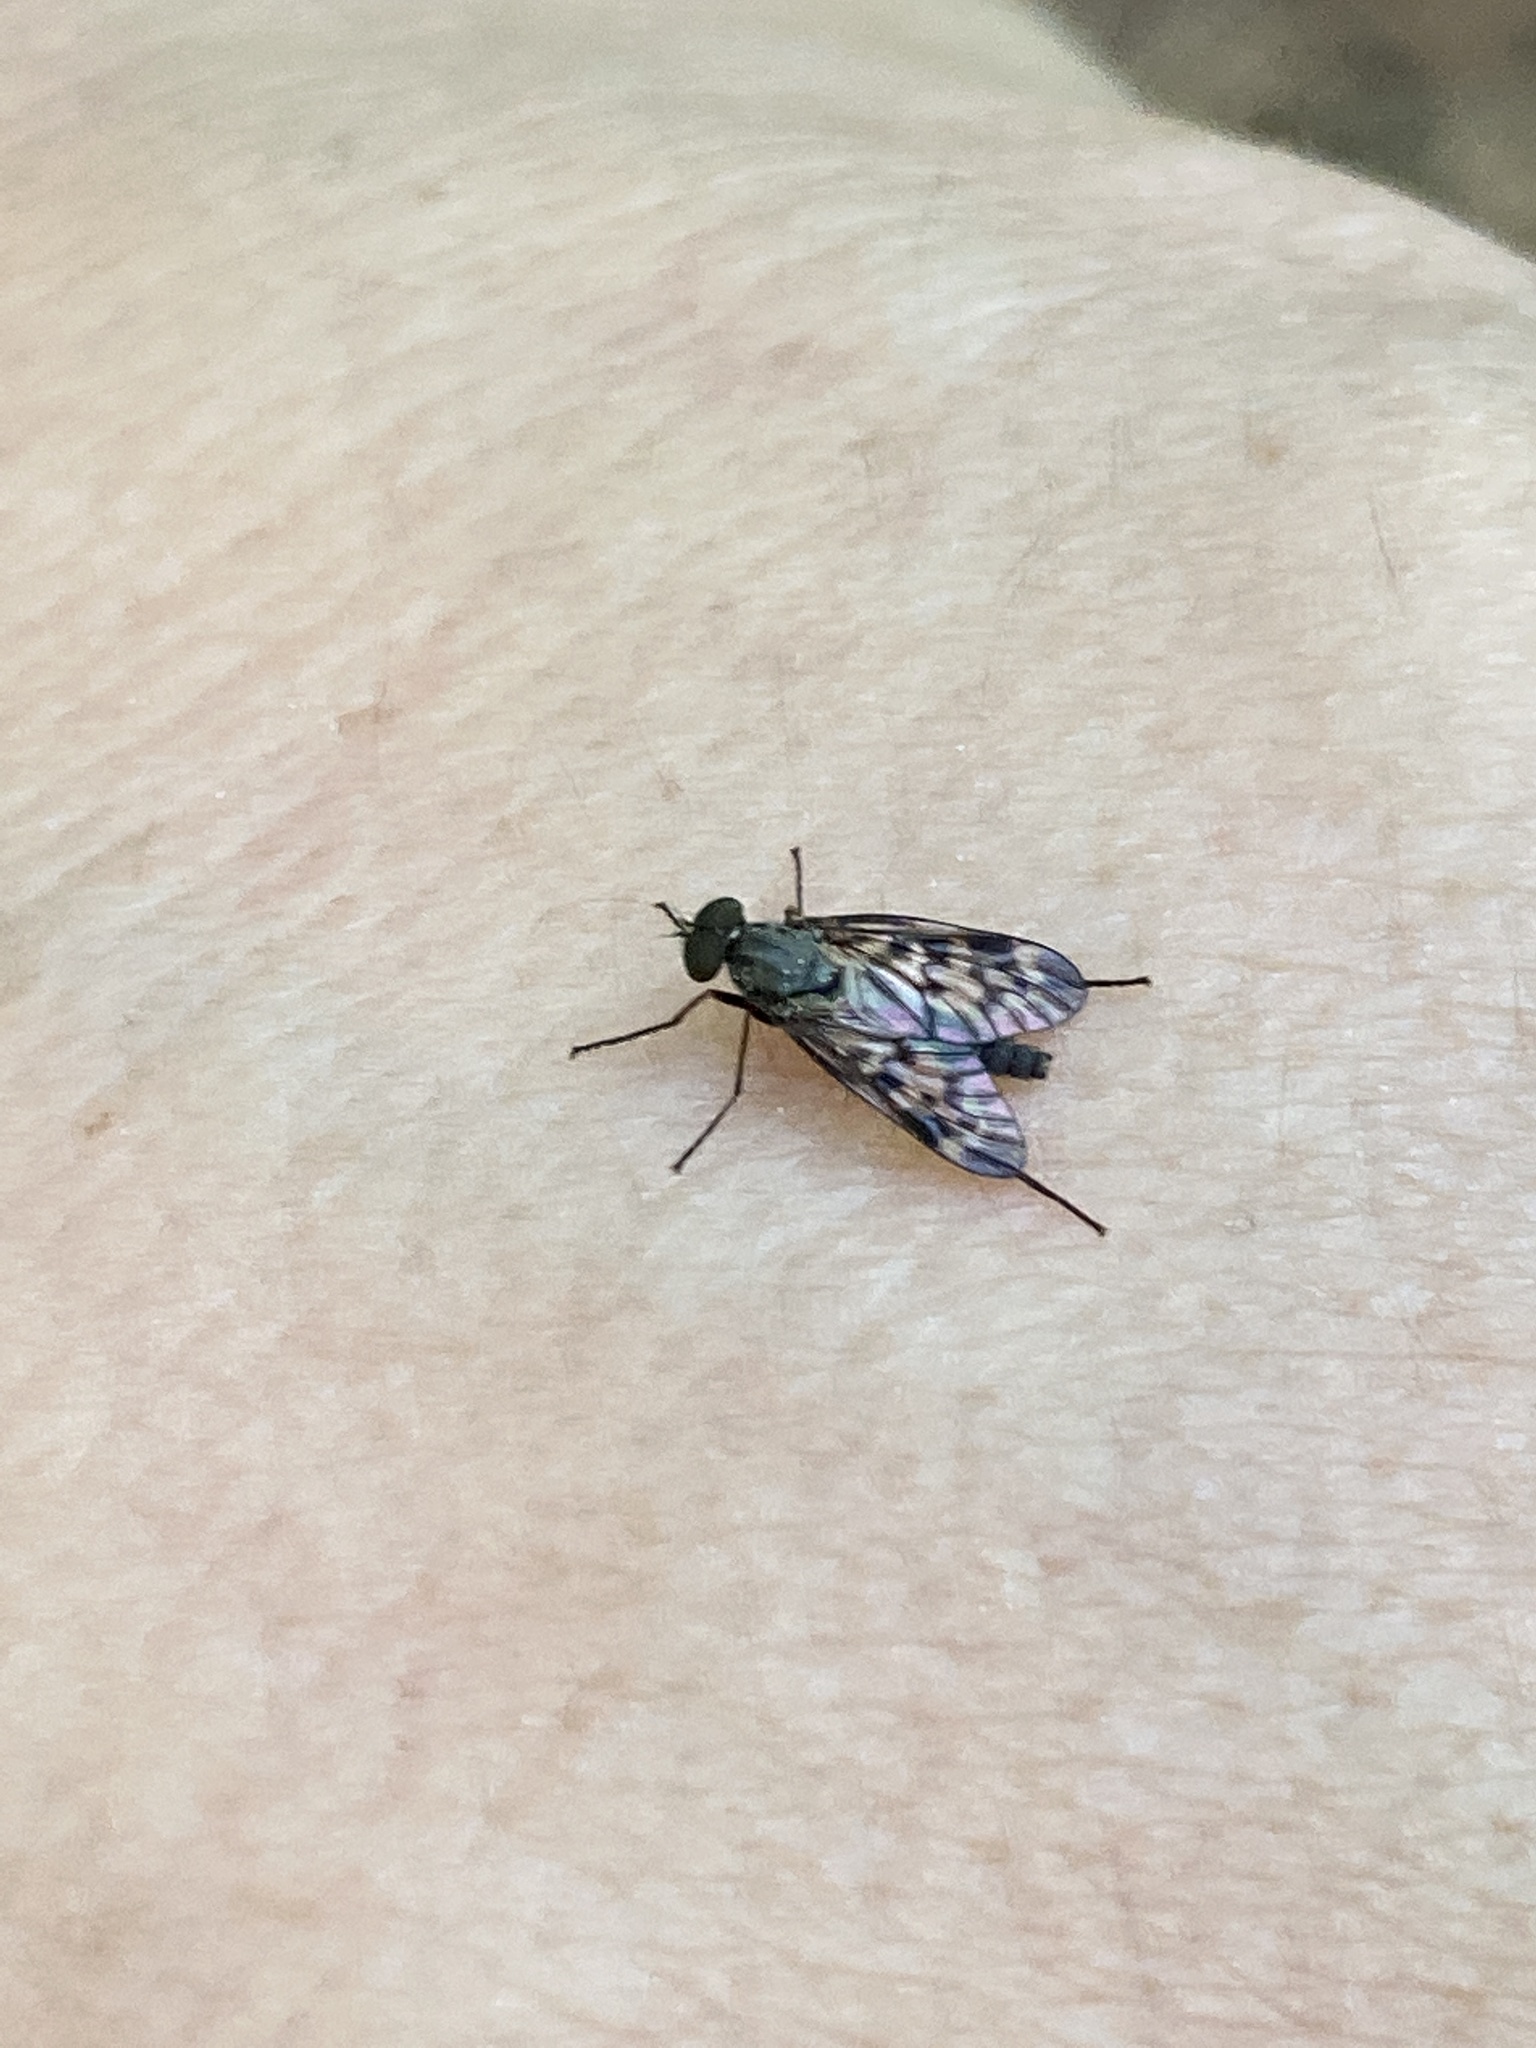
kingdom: Animalia
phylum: Arthropoda
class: Insecta
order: Diptera
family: Rhagionidae
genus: Rhagio
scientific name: Rhagio punctipennis
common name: Lesser variegated snipe fly
